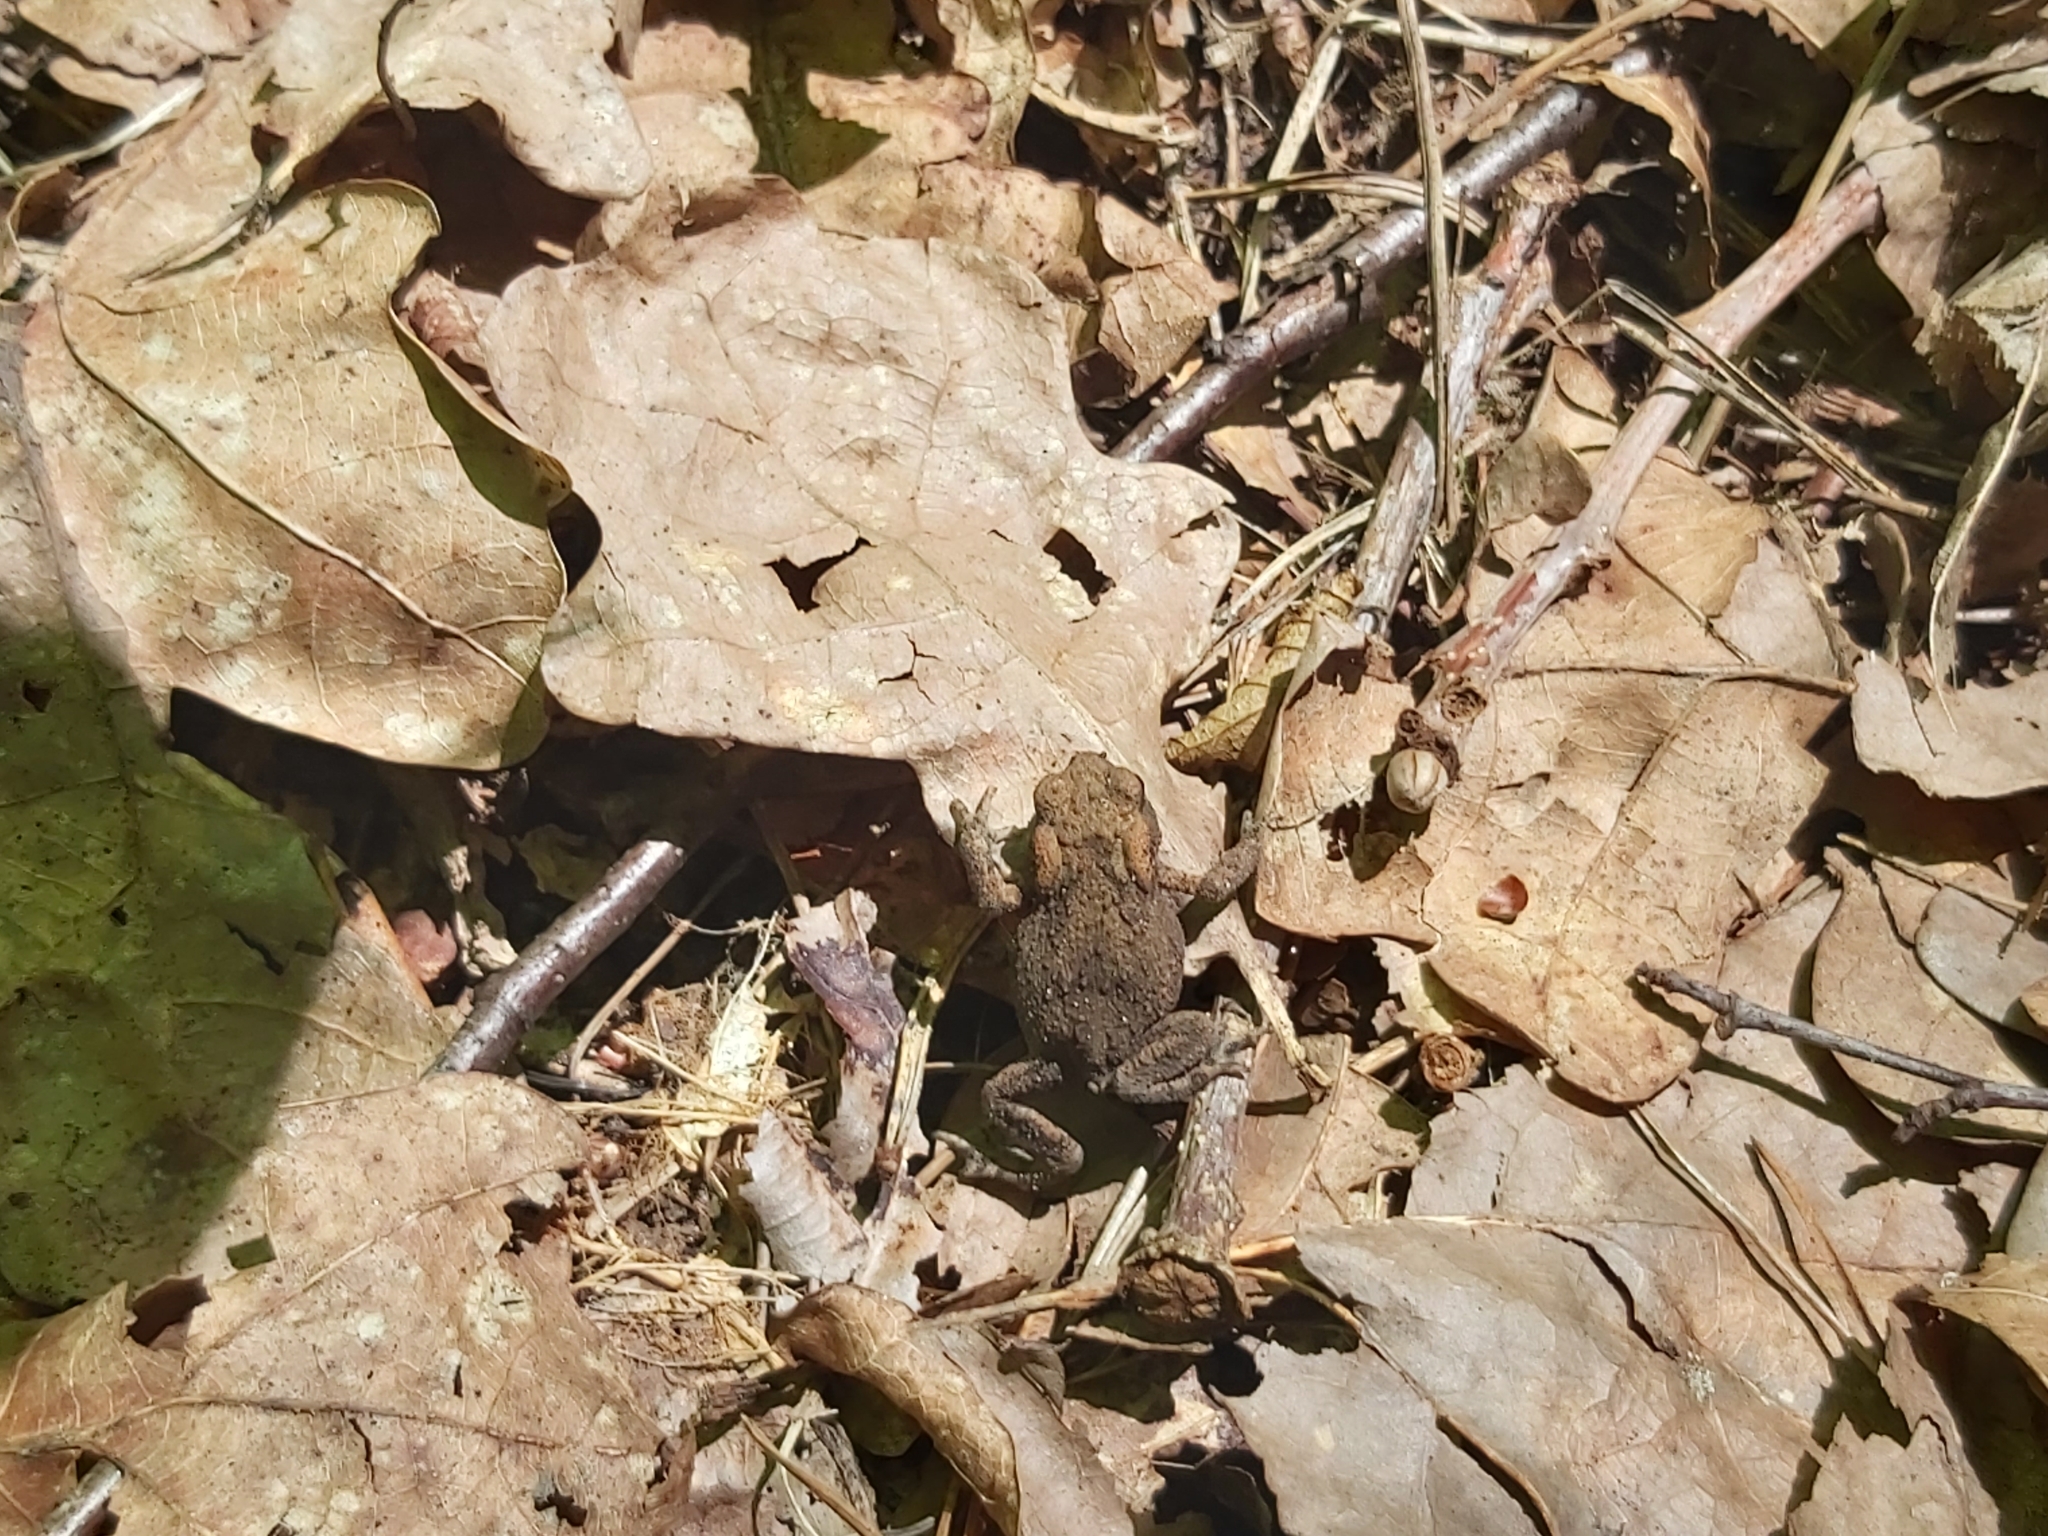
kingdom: Animalia
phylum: Chordata
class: Amphibia
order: Anura
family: Bufonidae
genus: Bufo
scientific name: Bufo bufo
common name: Common toad
